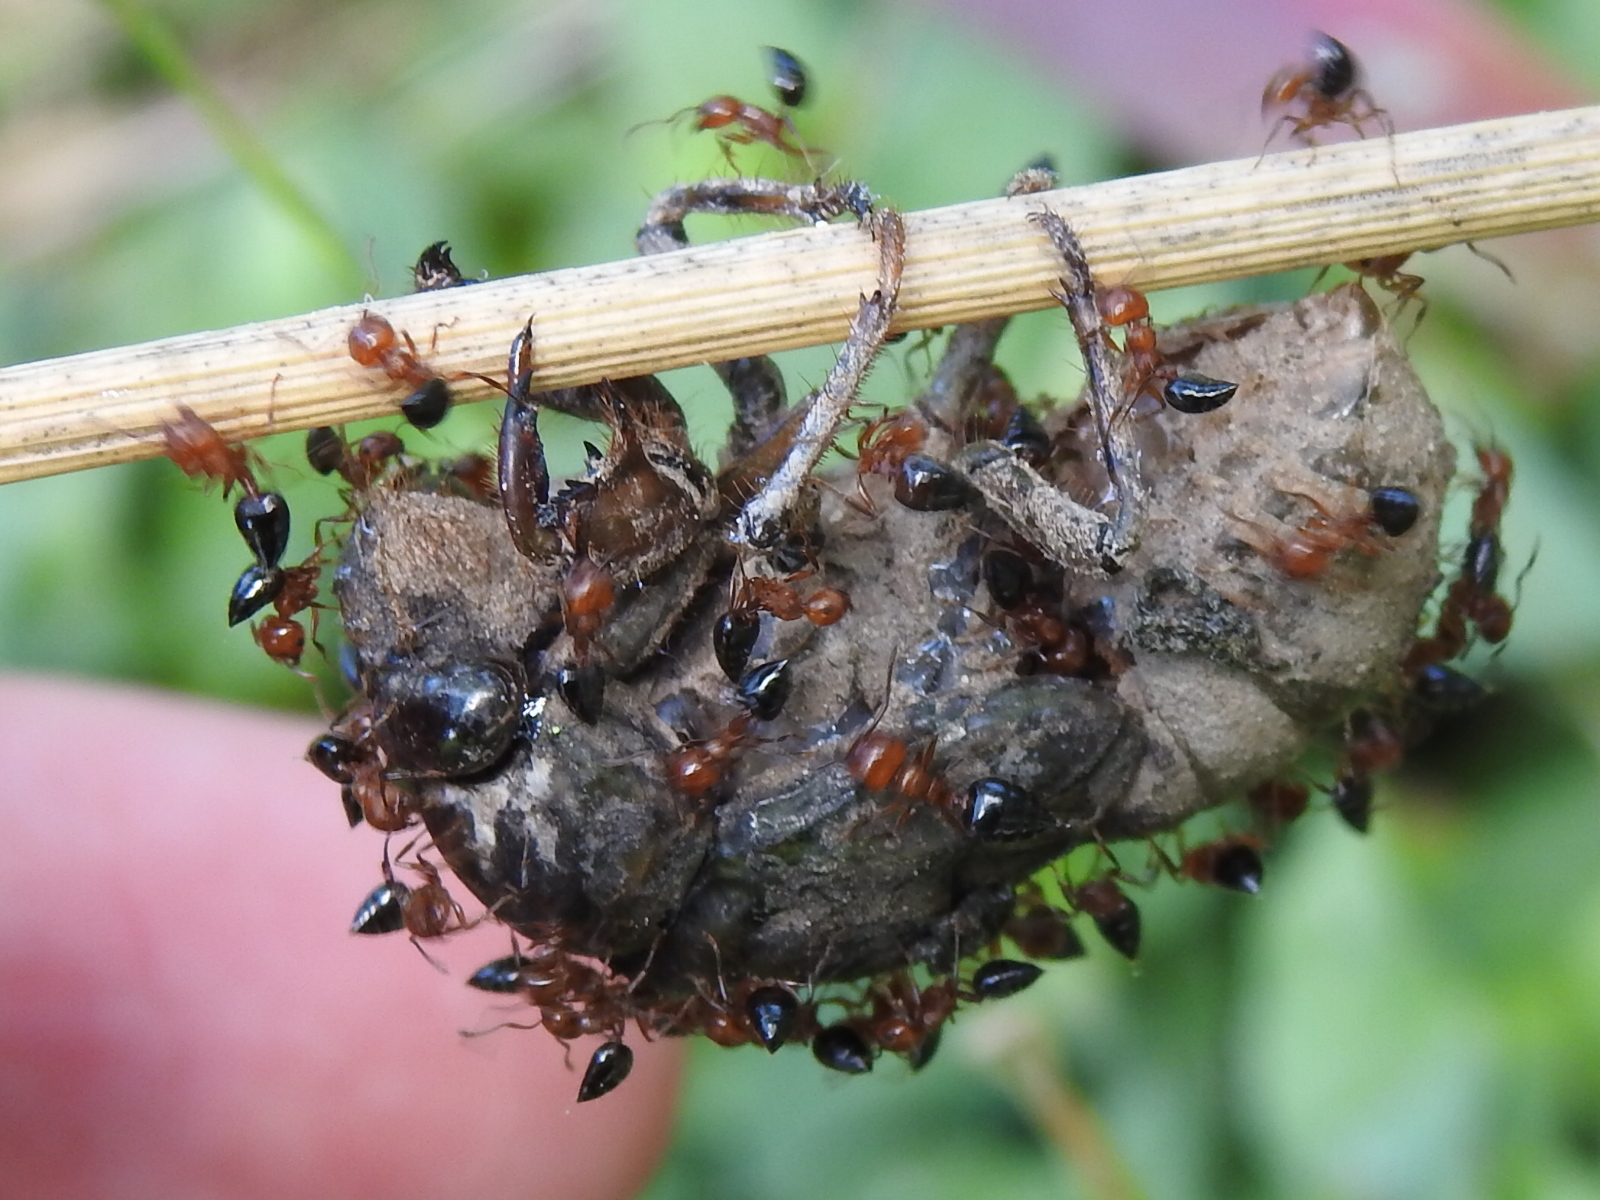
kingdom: Animalia
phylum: Arthropoda
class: Insecta
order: Hymenoptera
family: Formicidae
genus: Crematogaster
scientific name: Crematogaster laeviuscula
